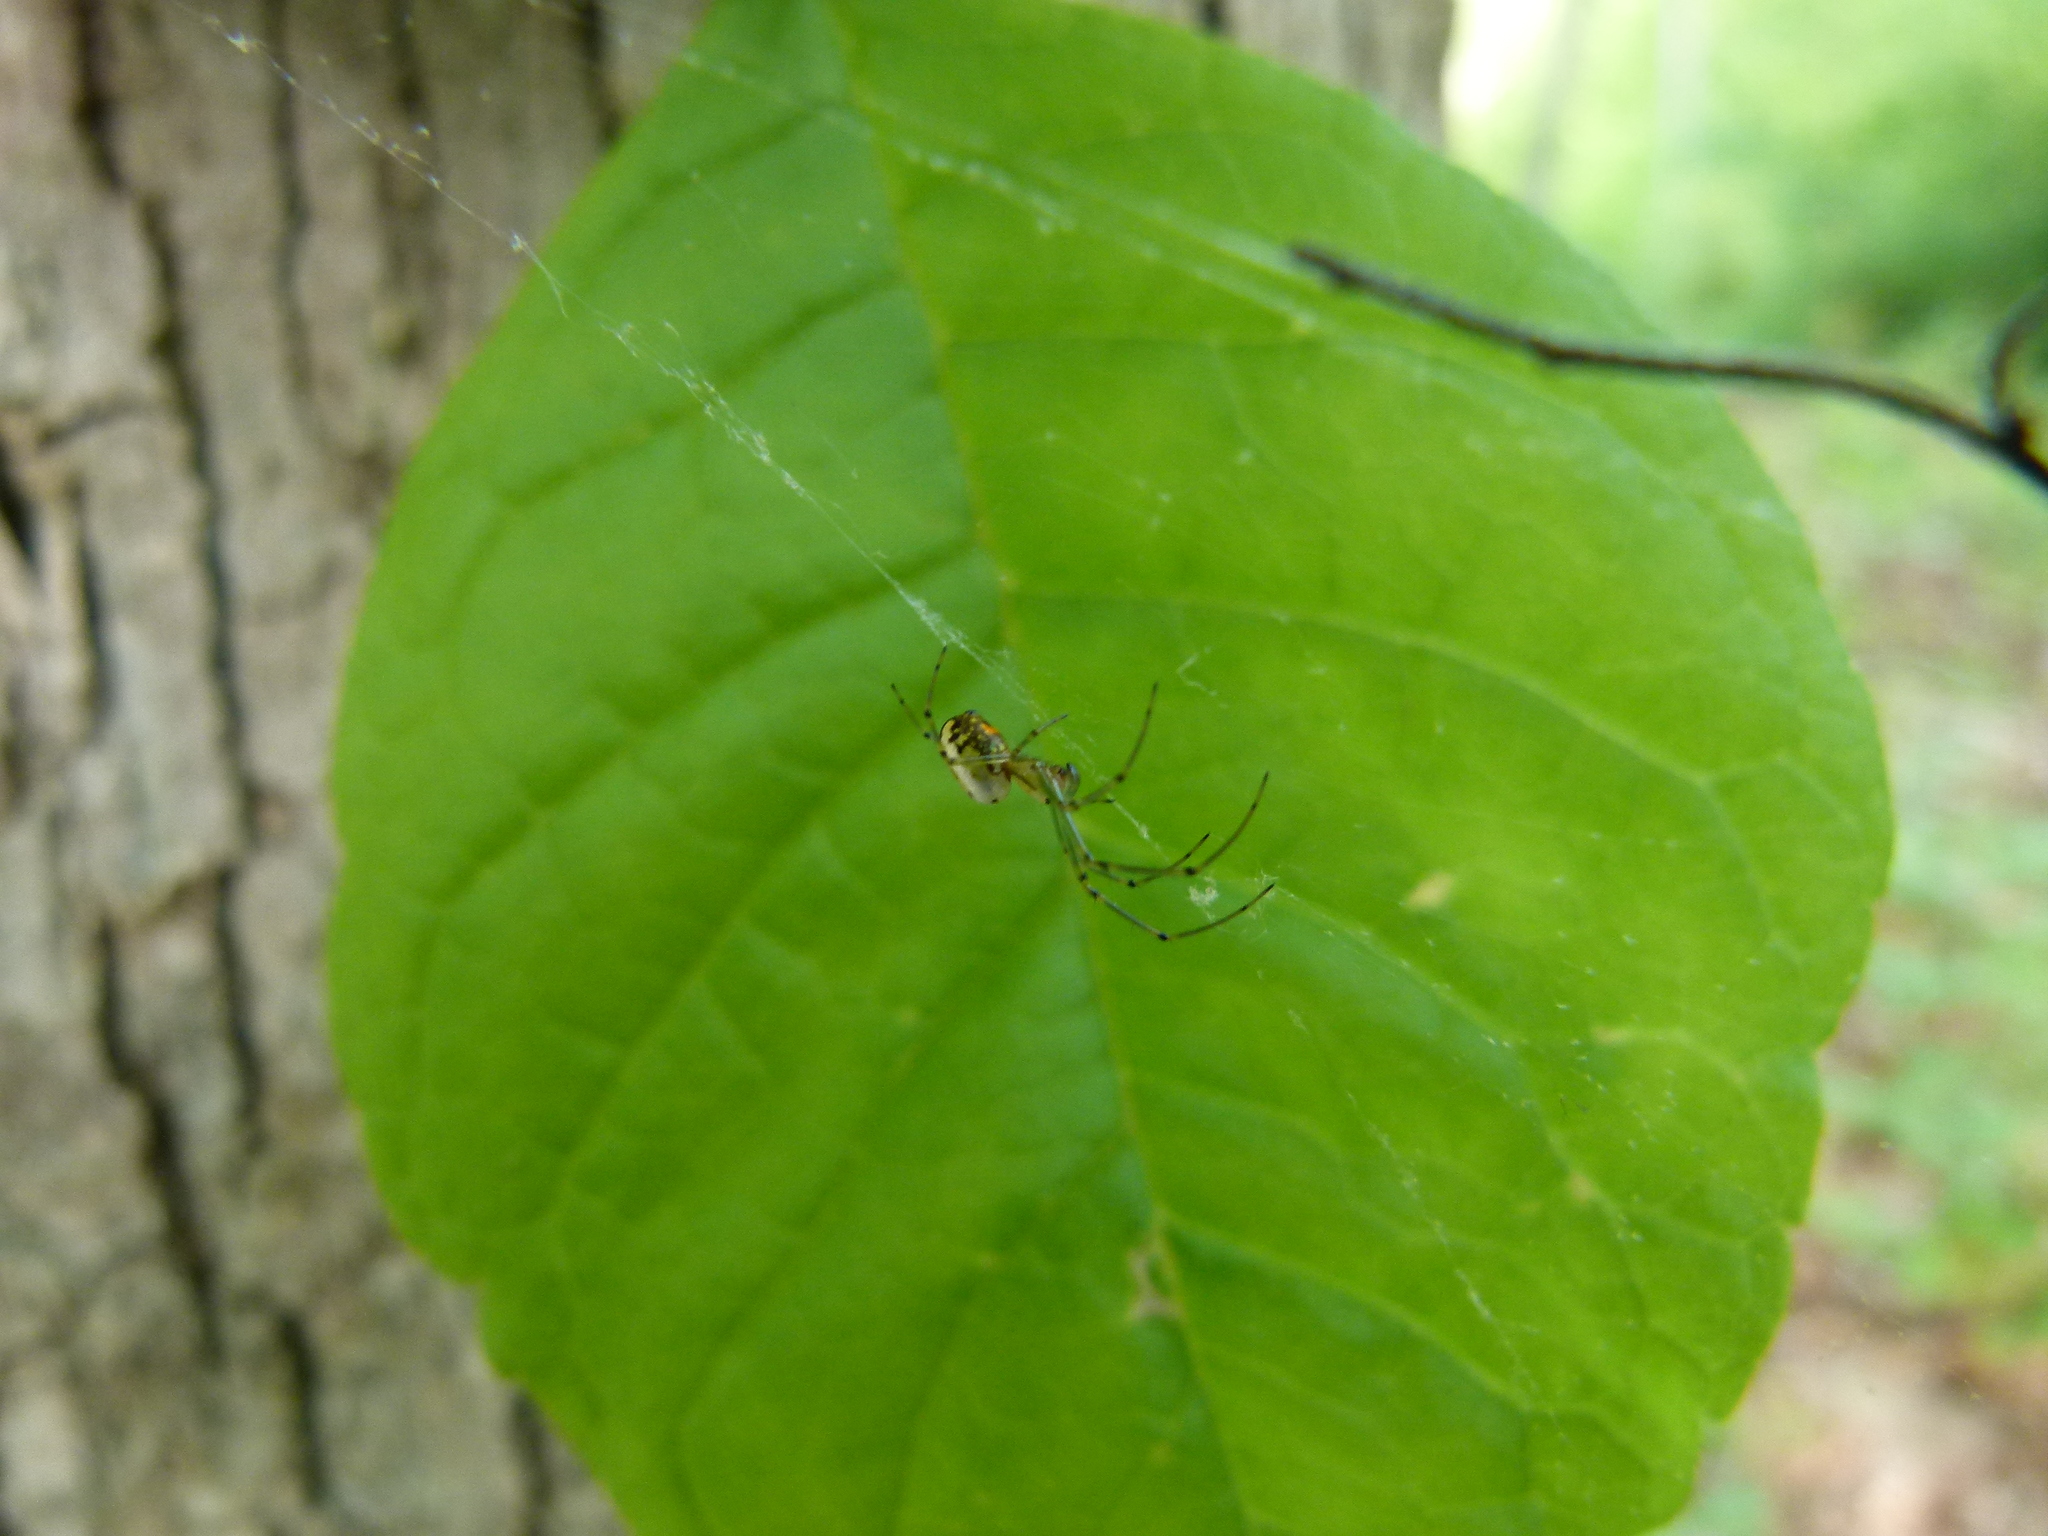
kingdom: Animalia
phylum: Arthropoda
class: Arachnida
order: Araneae
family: Tetragnathidae
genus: Leucauge
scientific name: Leucauge venusta
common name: Longjawed orb weavers
